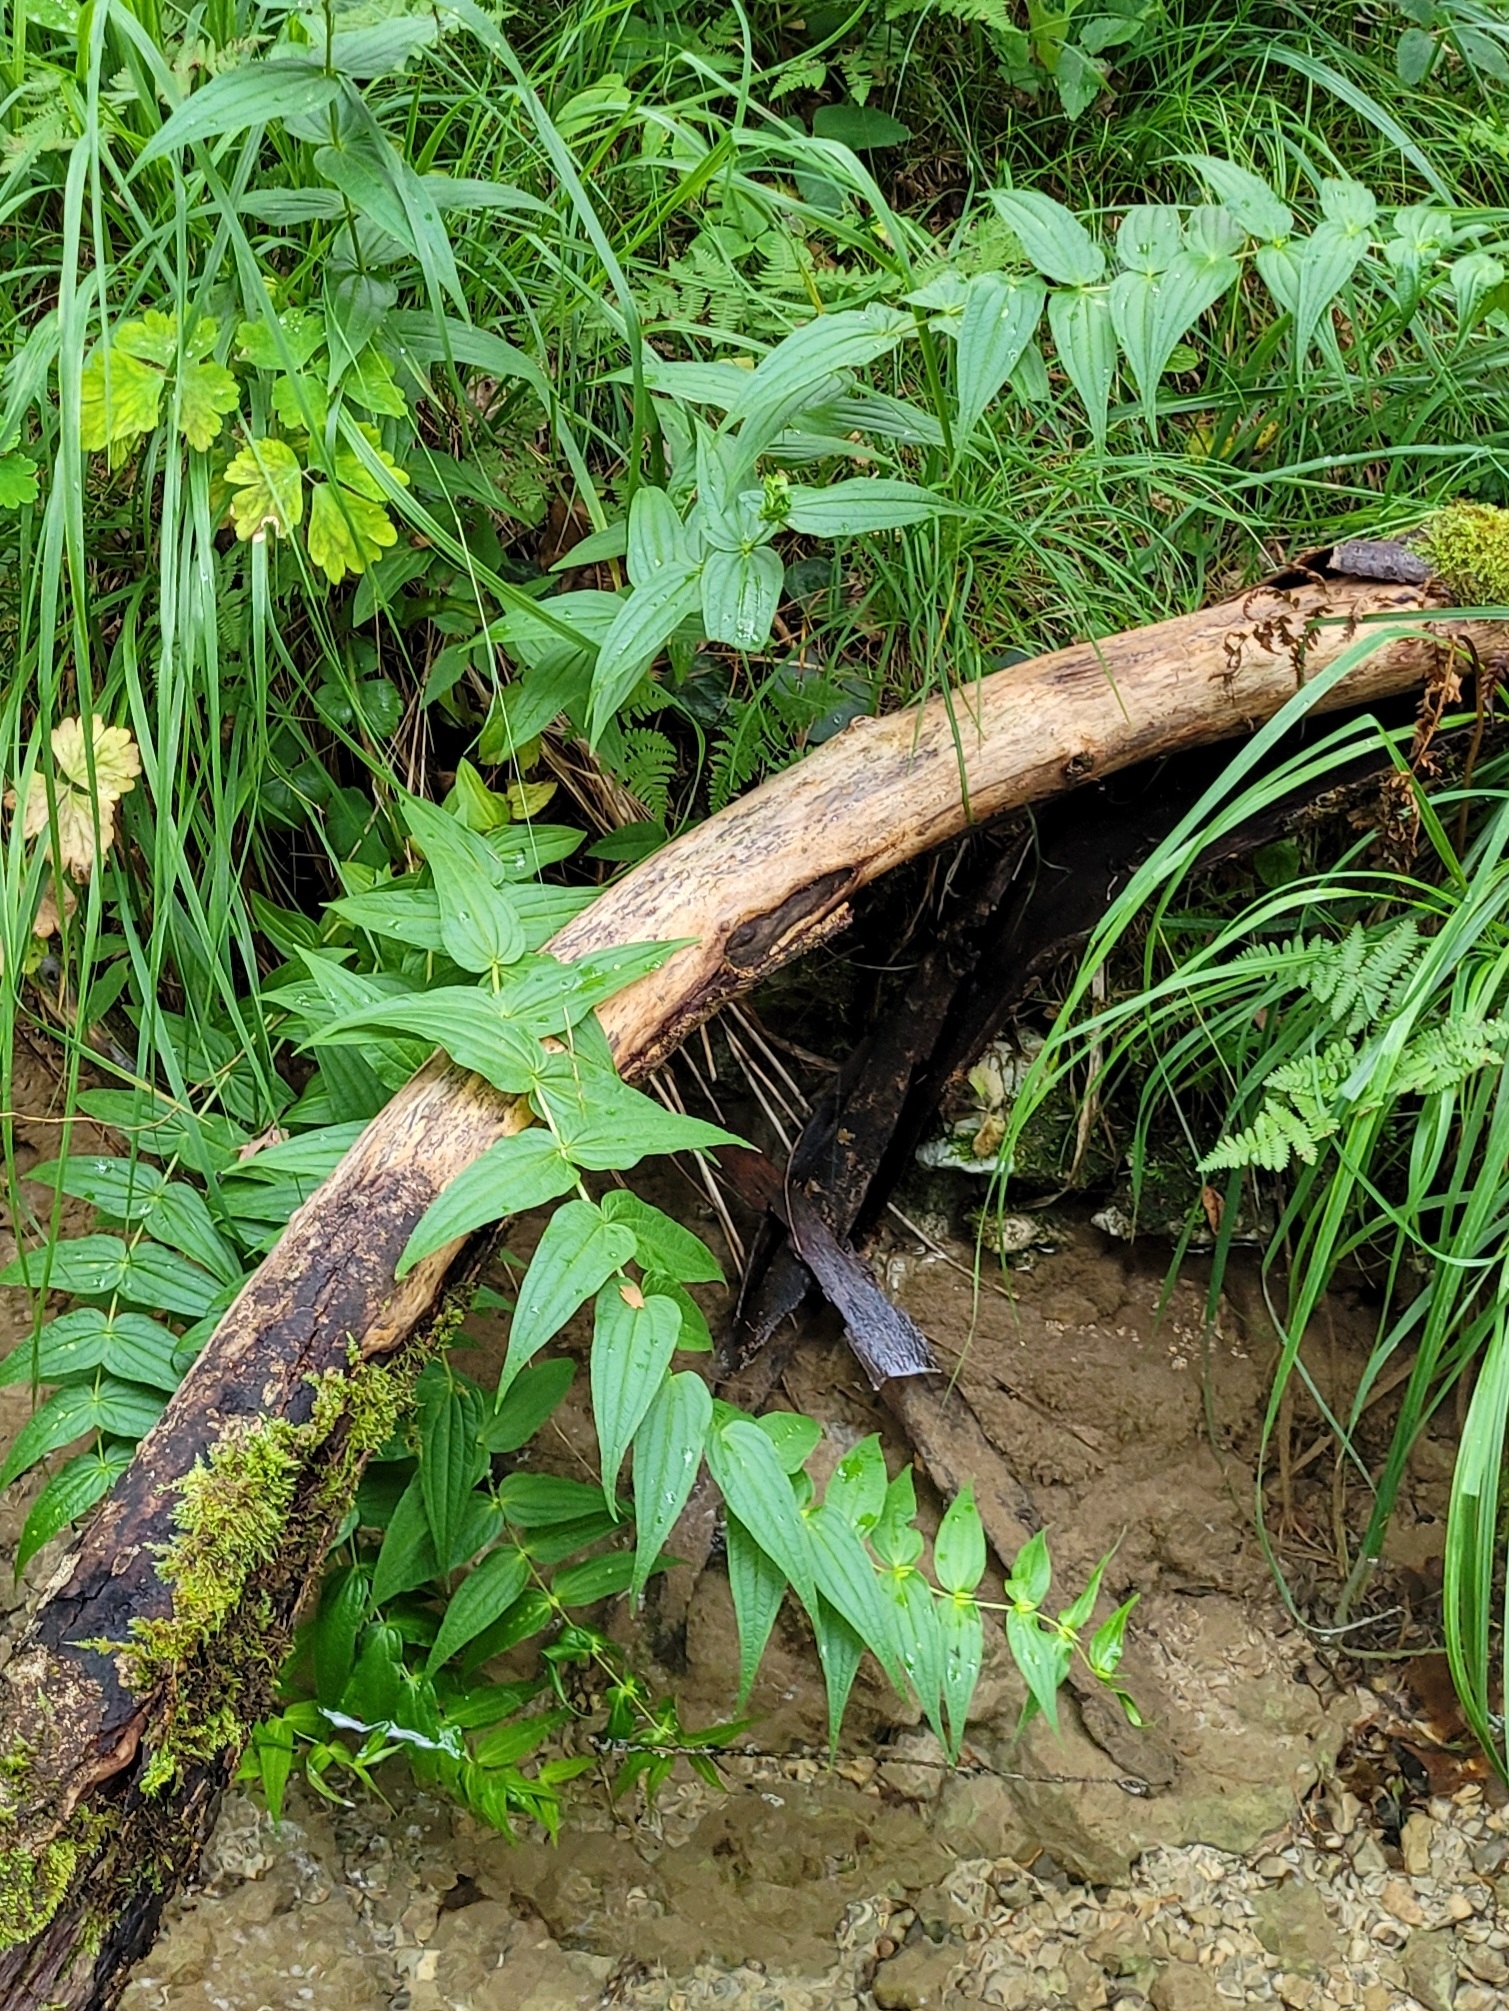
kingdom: Plantae
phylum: Tracheophyta
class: Magnoliopsida
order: Gentianales
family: Gentianaceae
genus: Gentiana
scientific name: Gentiana asclepiadea
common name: Willow gentian
